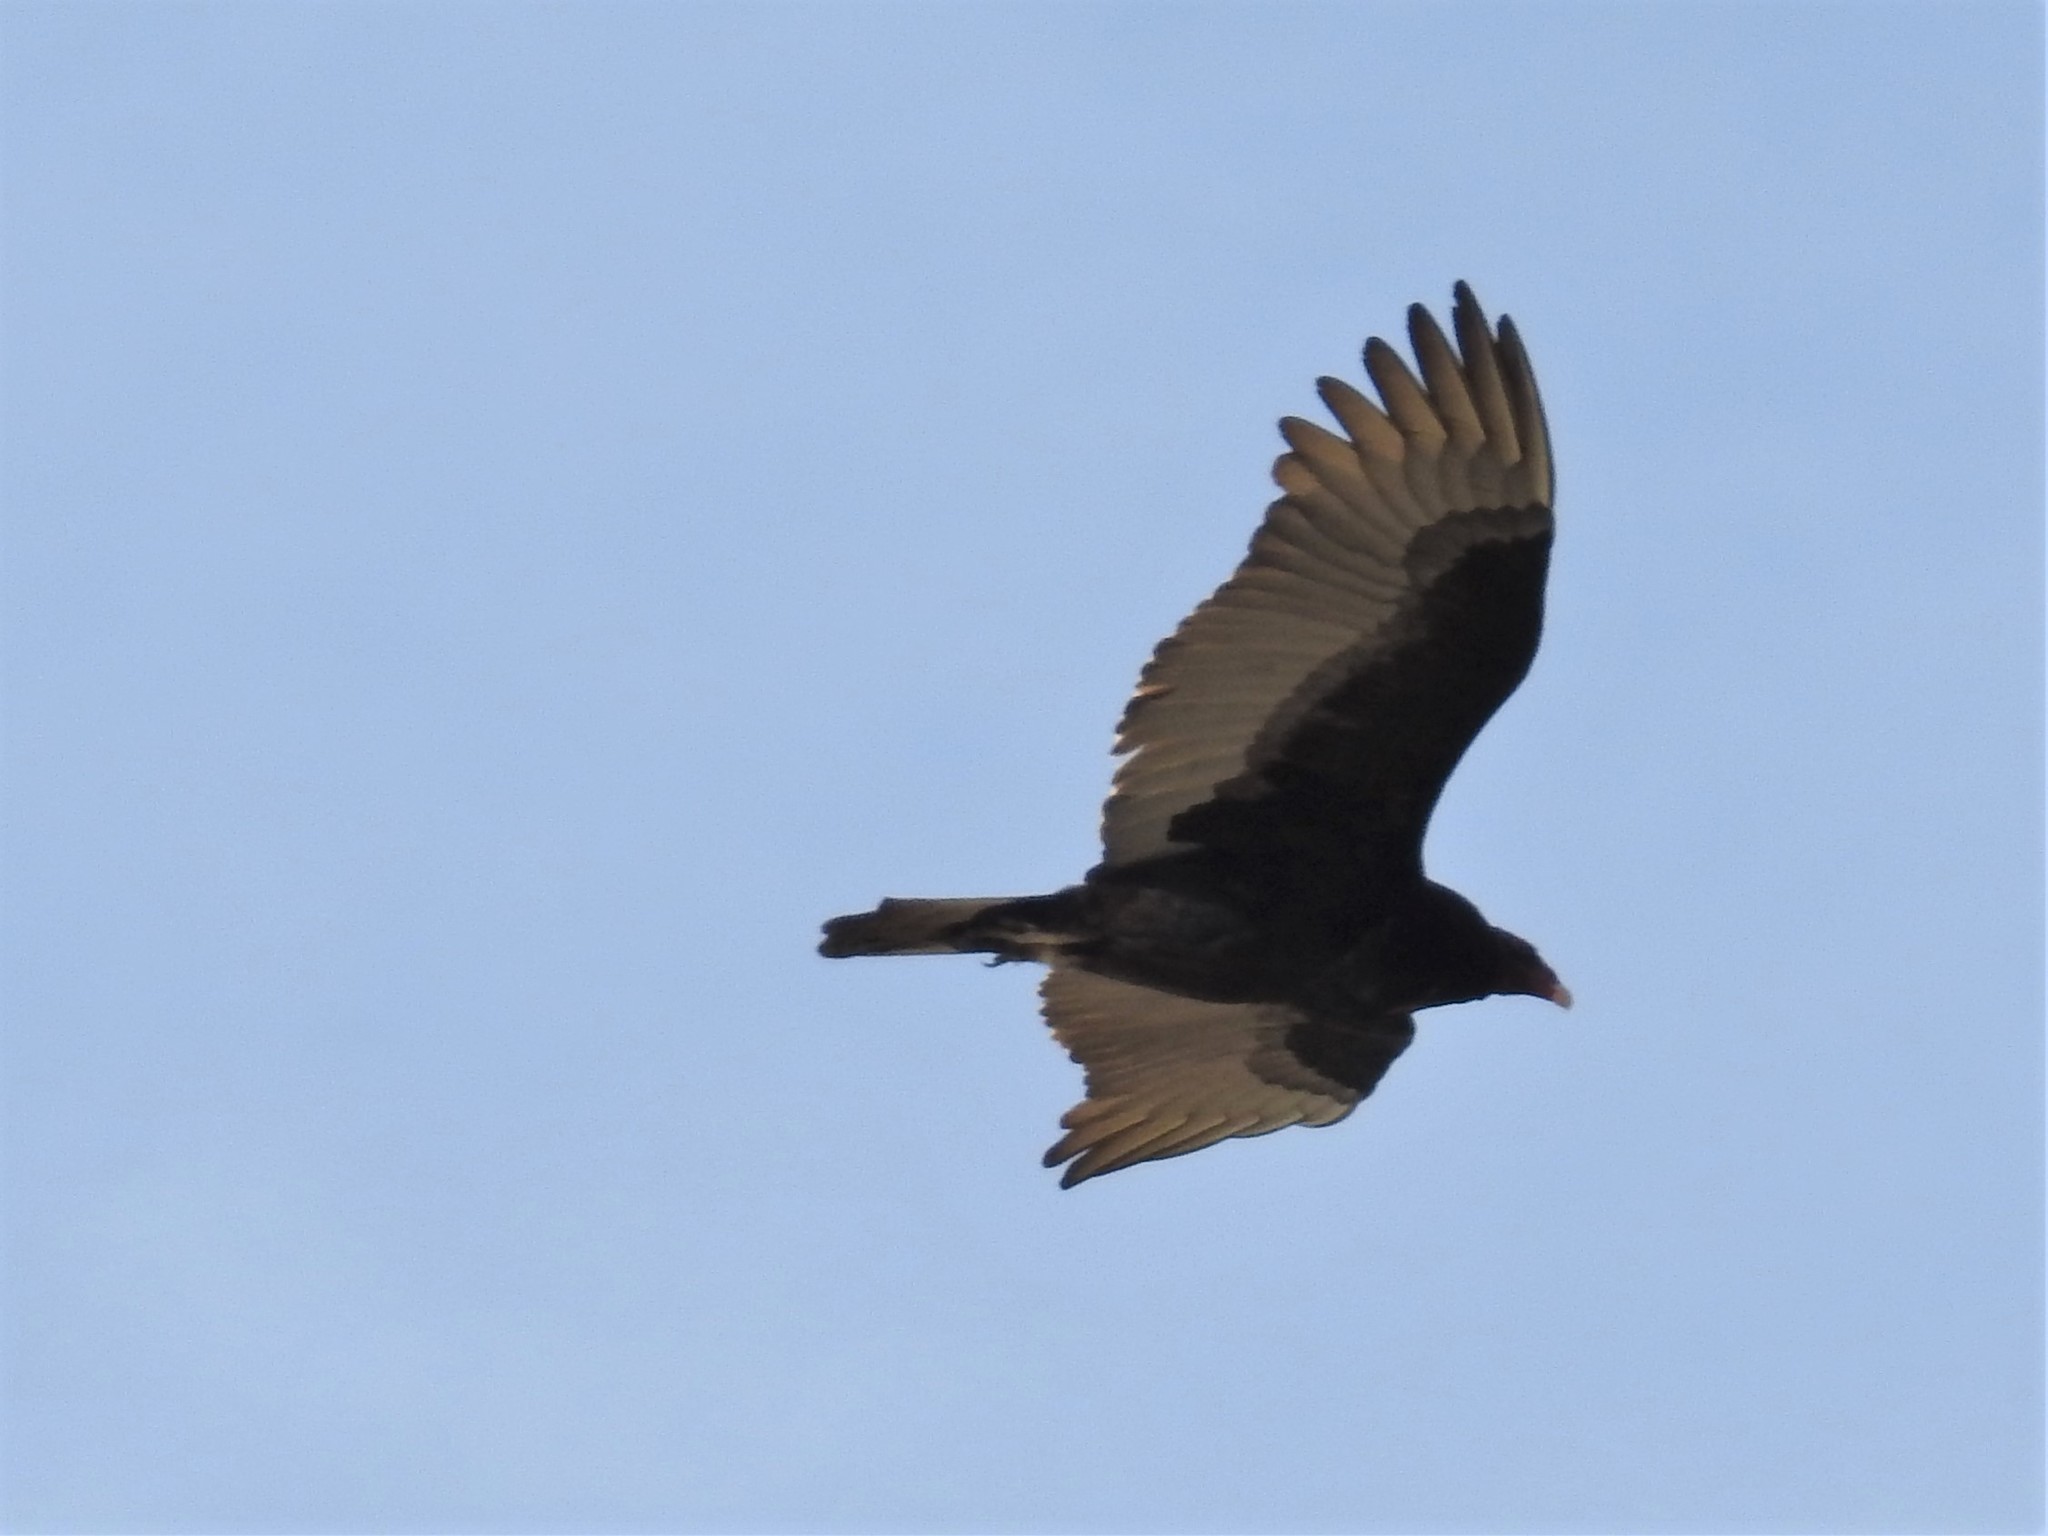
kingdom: Animalia
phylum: Chordata
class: Aves
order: Accipitriformes
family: Cathartidae
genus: Cathartes
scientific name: Cathartes aura
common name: Turkey vulture
